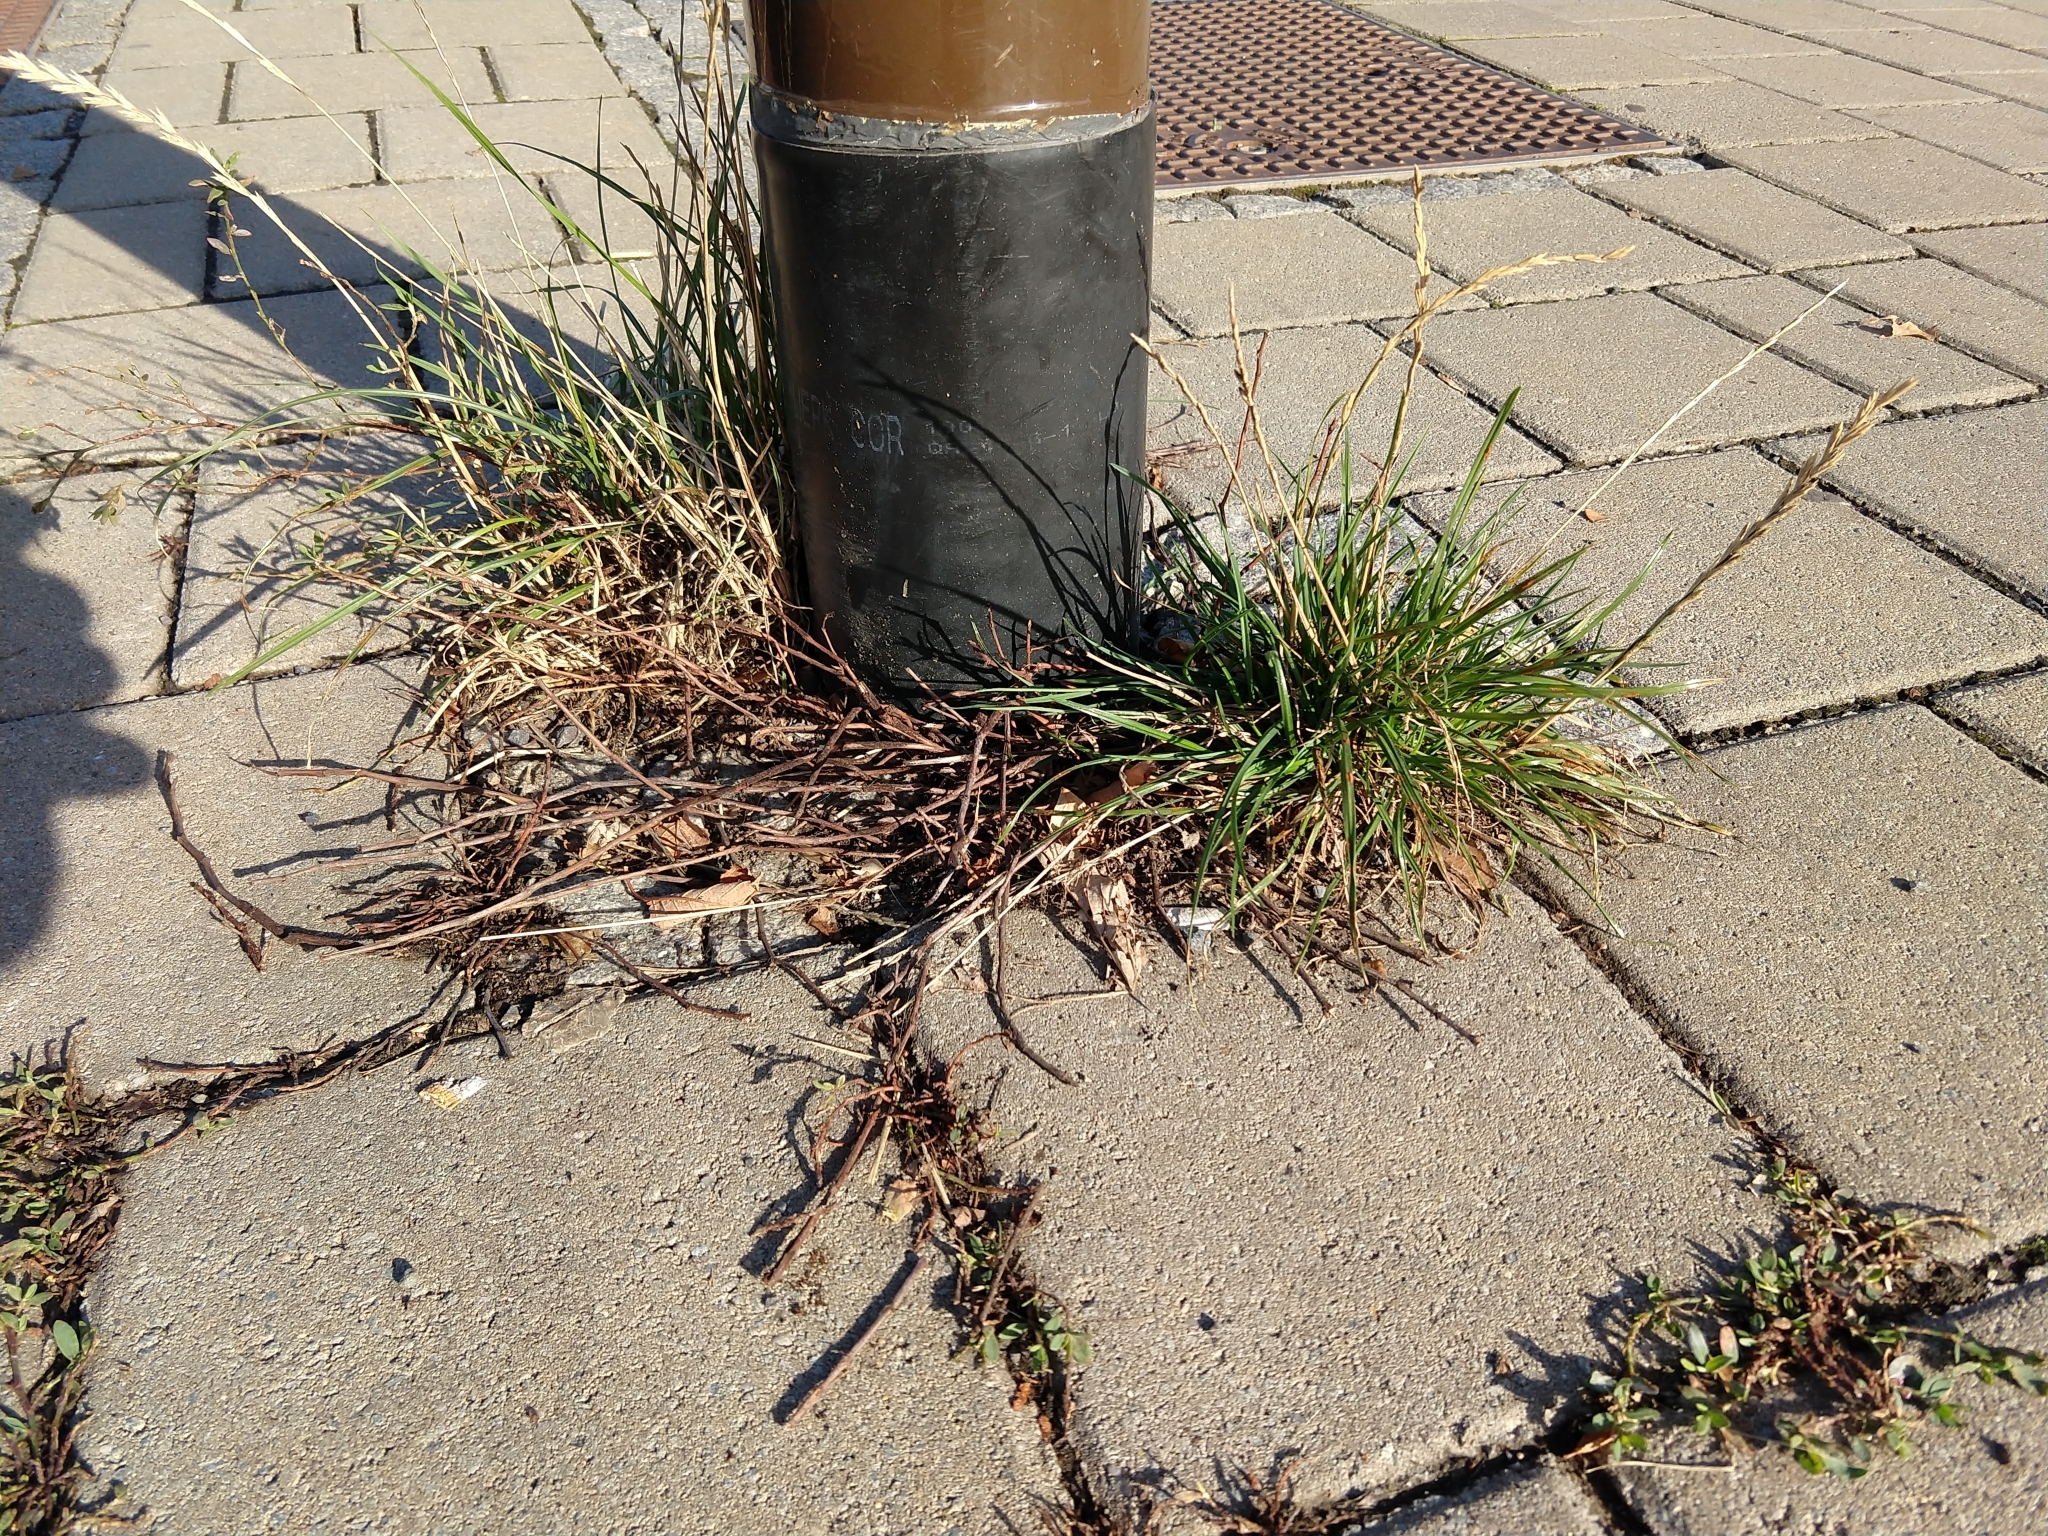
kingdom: Plantae
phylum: Tracheophyta
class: Liliopsida
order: Poales
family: Poaceae
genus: Lolium
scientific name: Lolium perenne
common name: Perennial ryegrass
